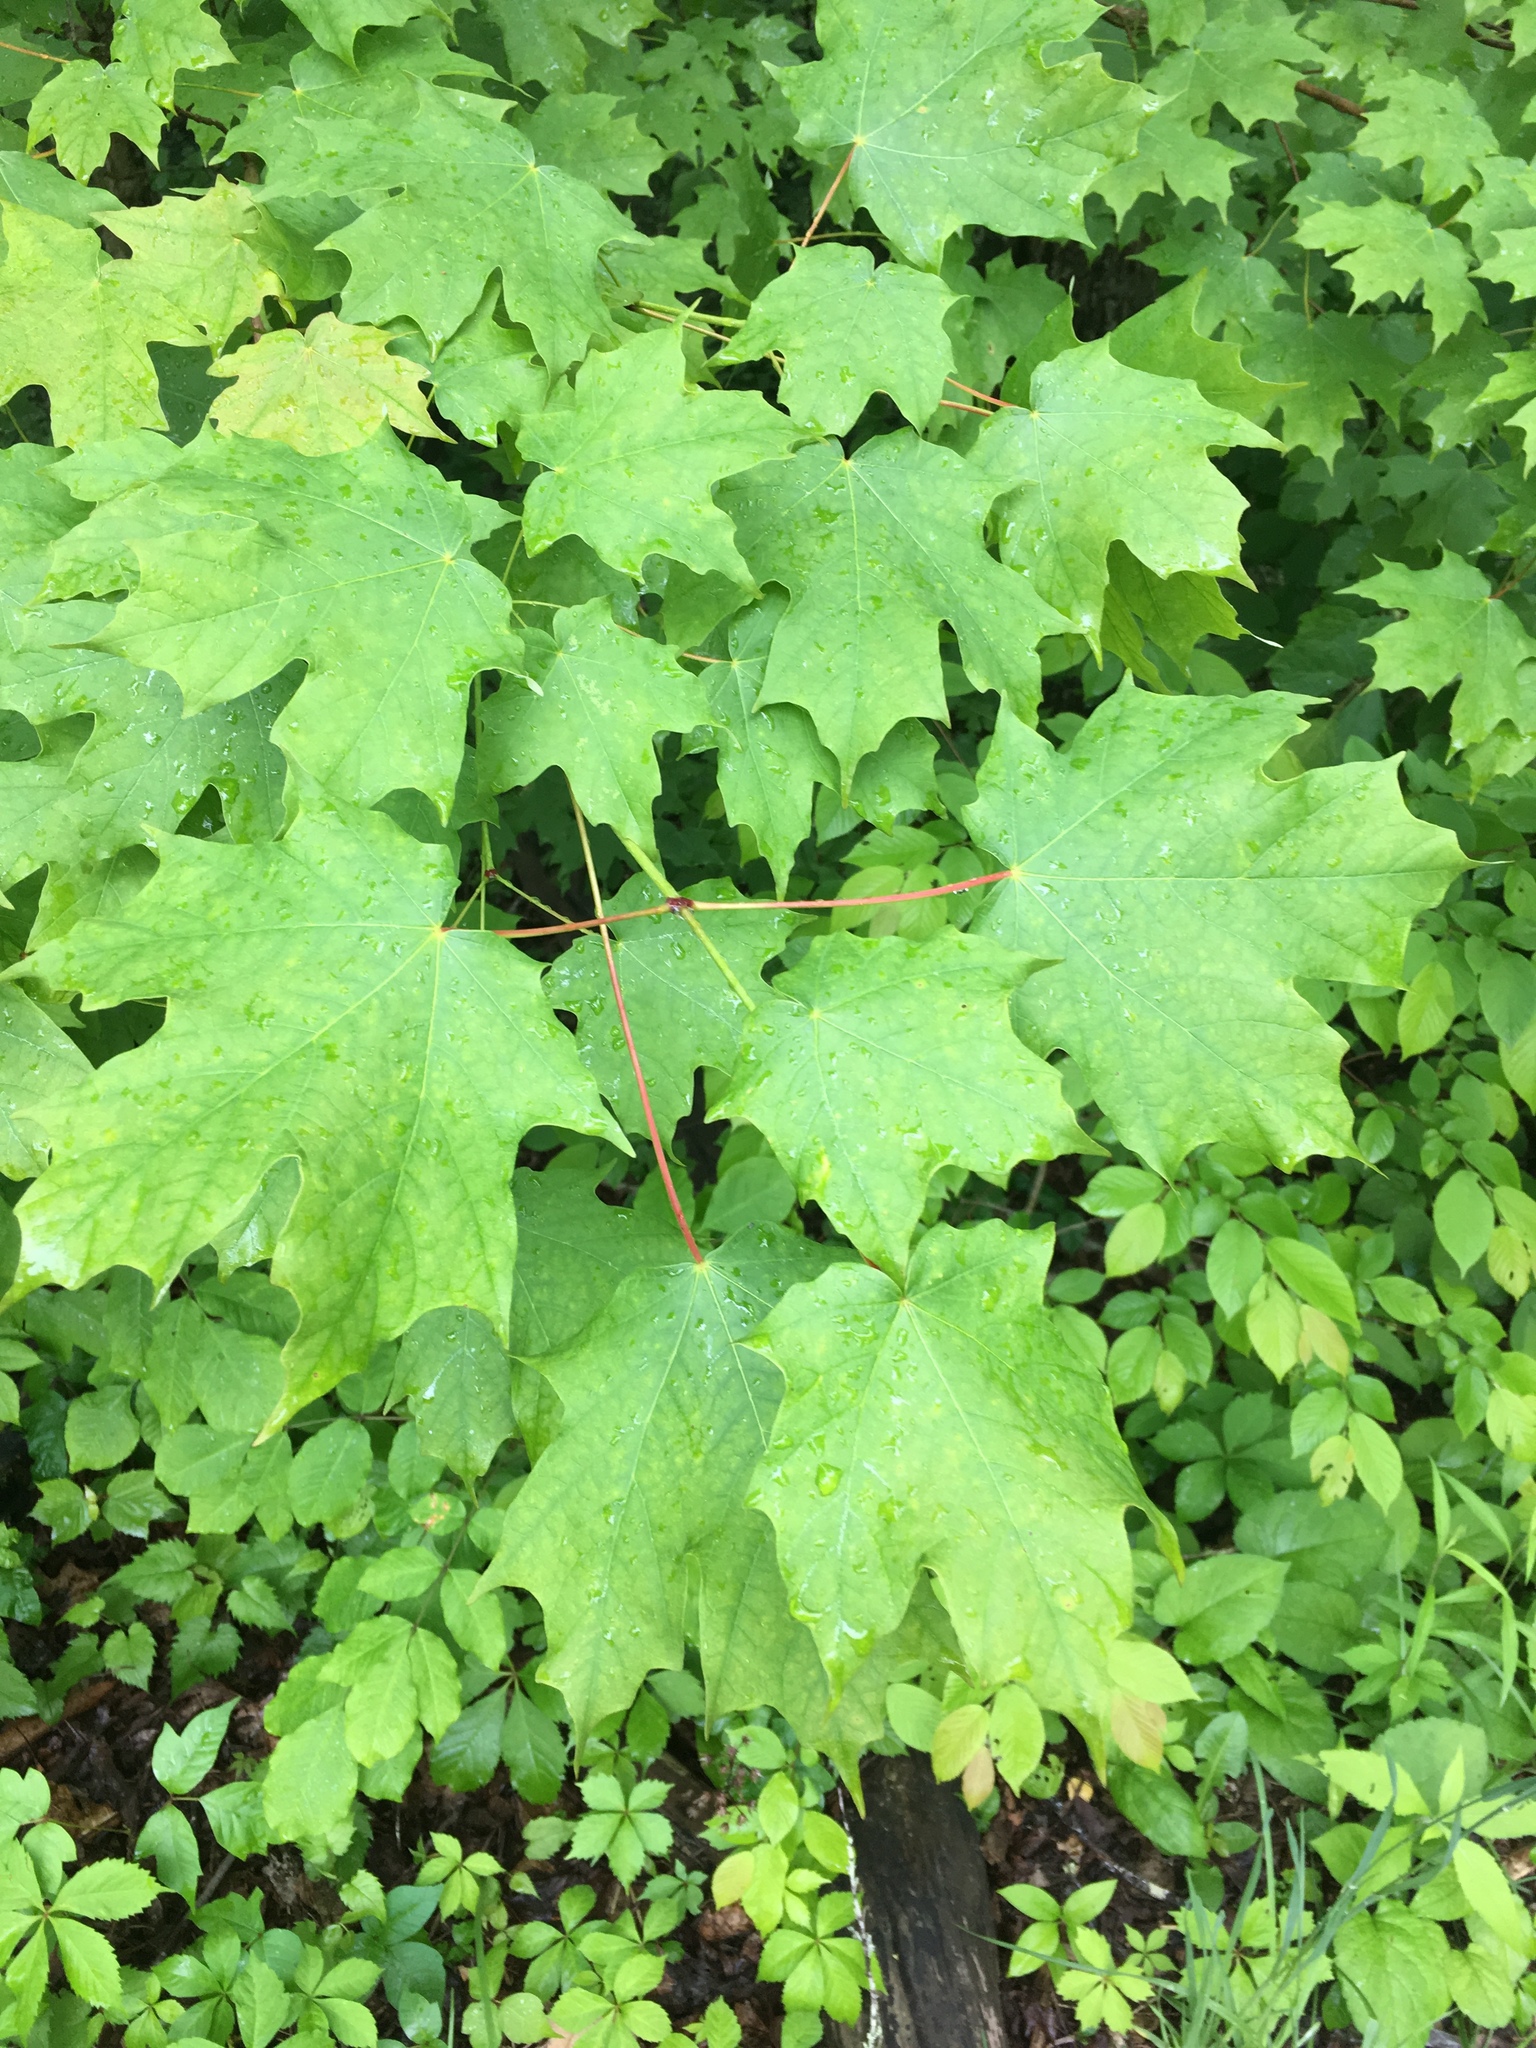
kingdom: Plantae
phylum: Tracheophyta
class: Magnoliopsida
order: Sapindales
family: Sapindaceae
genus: Acer
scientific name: Acer saccharum
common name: Sugar maple
